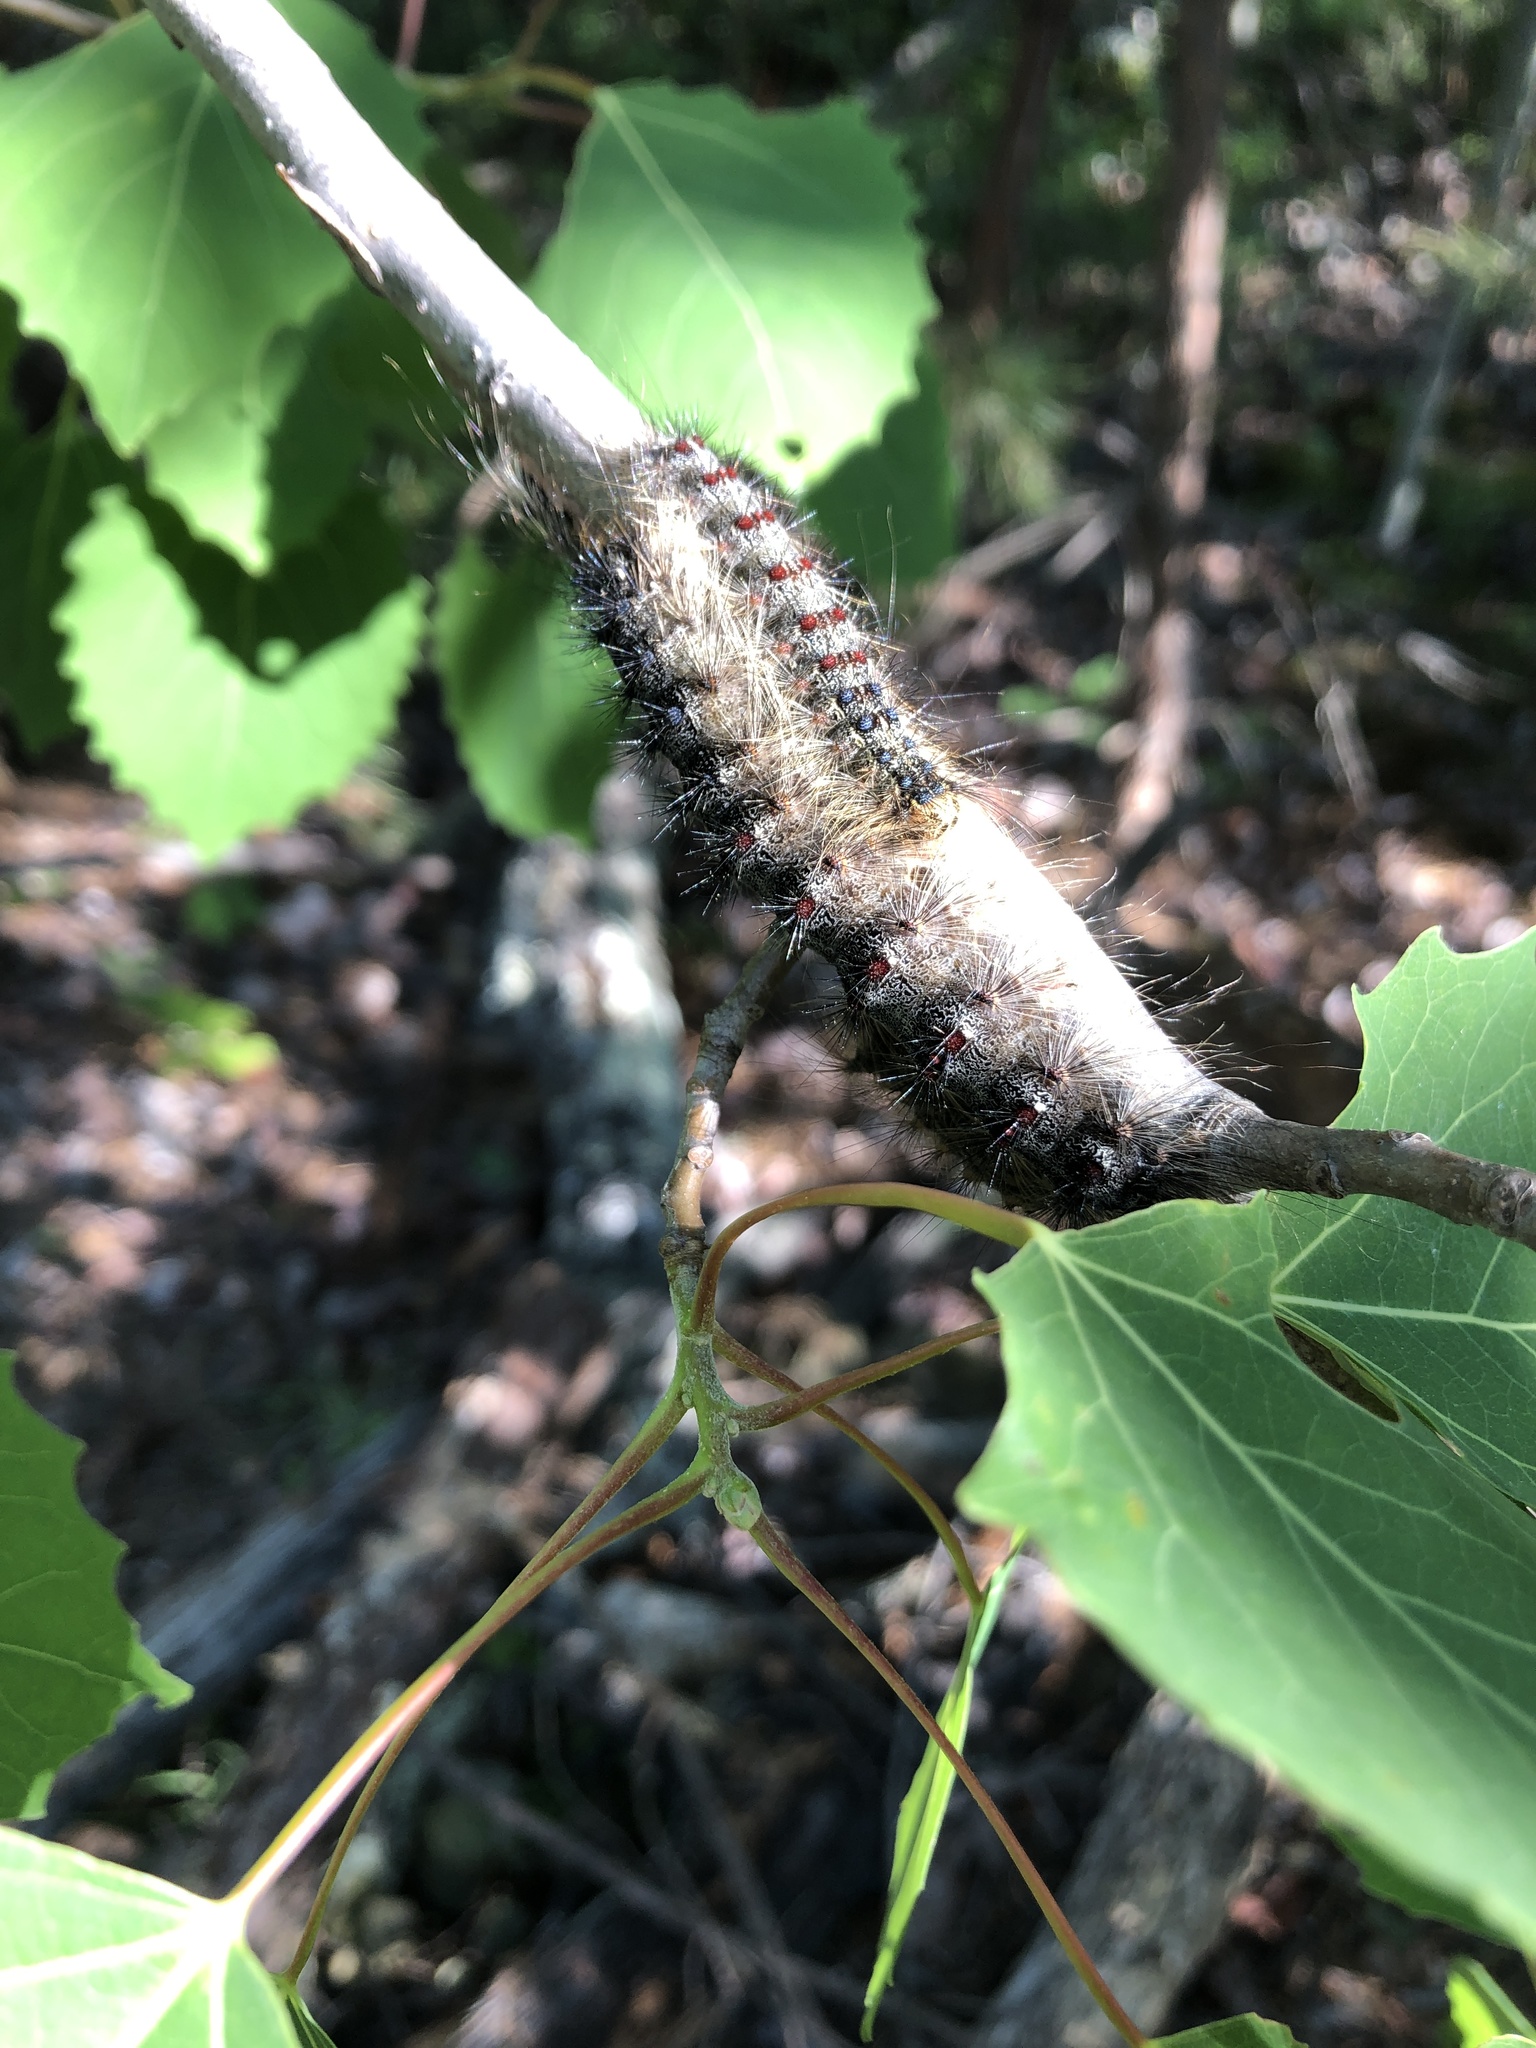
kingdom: Animalia
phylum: Arthropoda
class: Insecta
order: Lepidoptera
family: Erebidae
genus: Lymantria
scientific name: Lymantria dispar
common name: Gypsy moth
